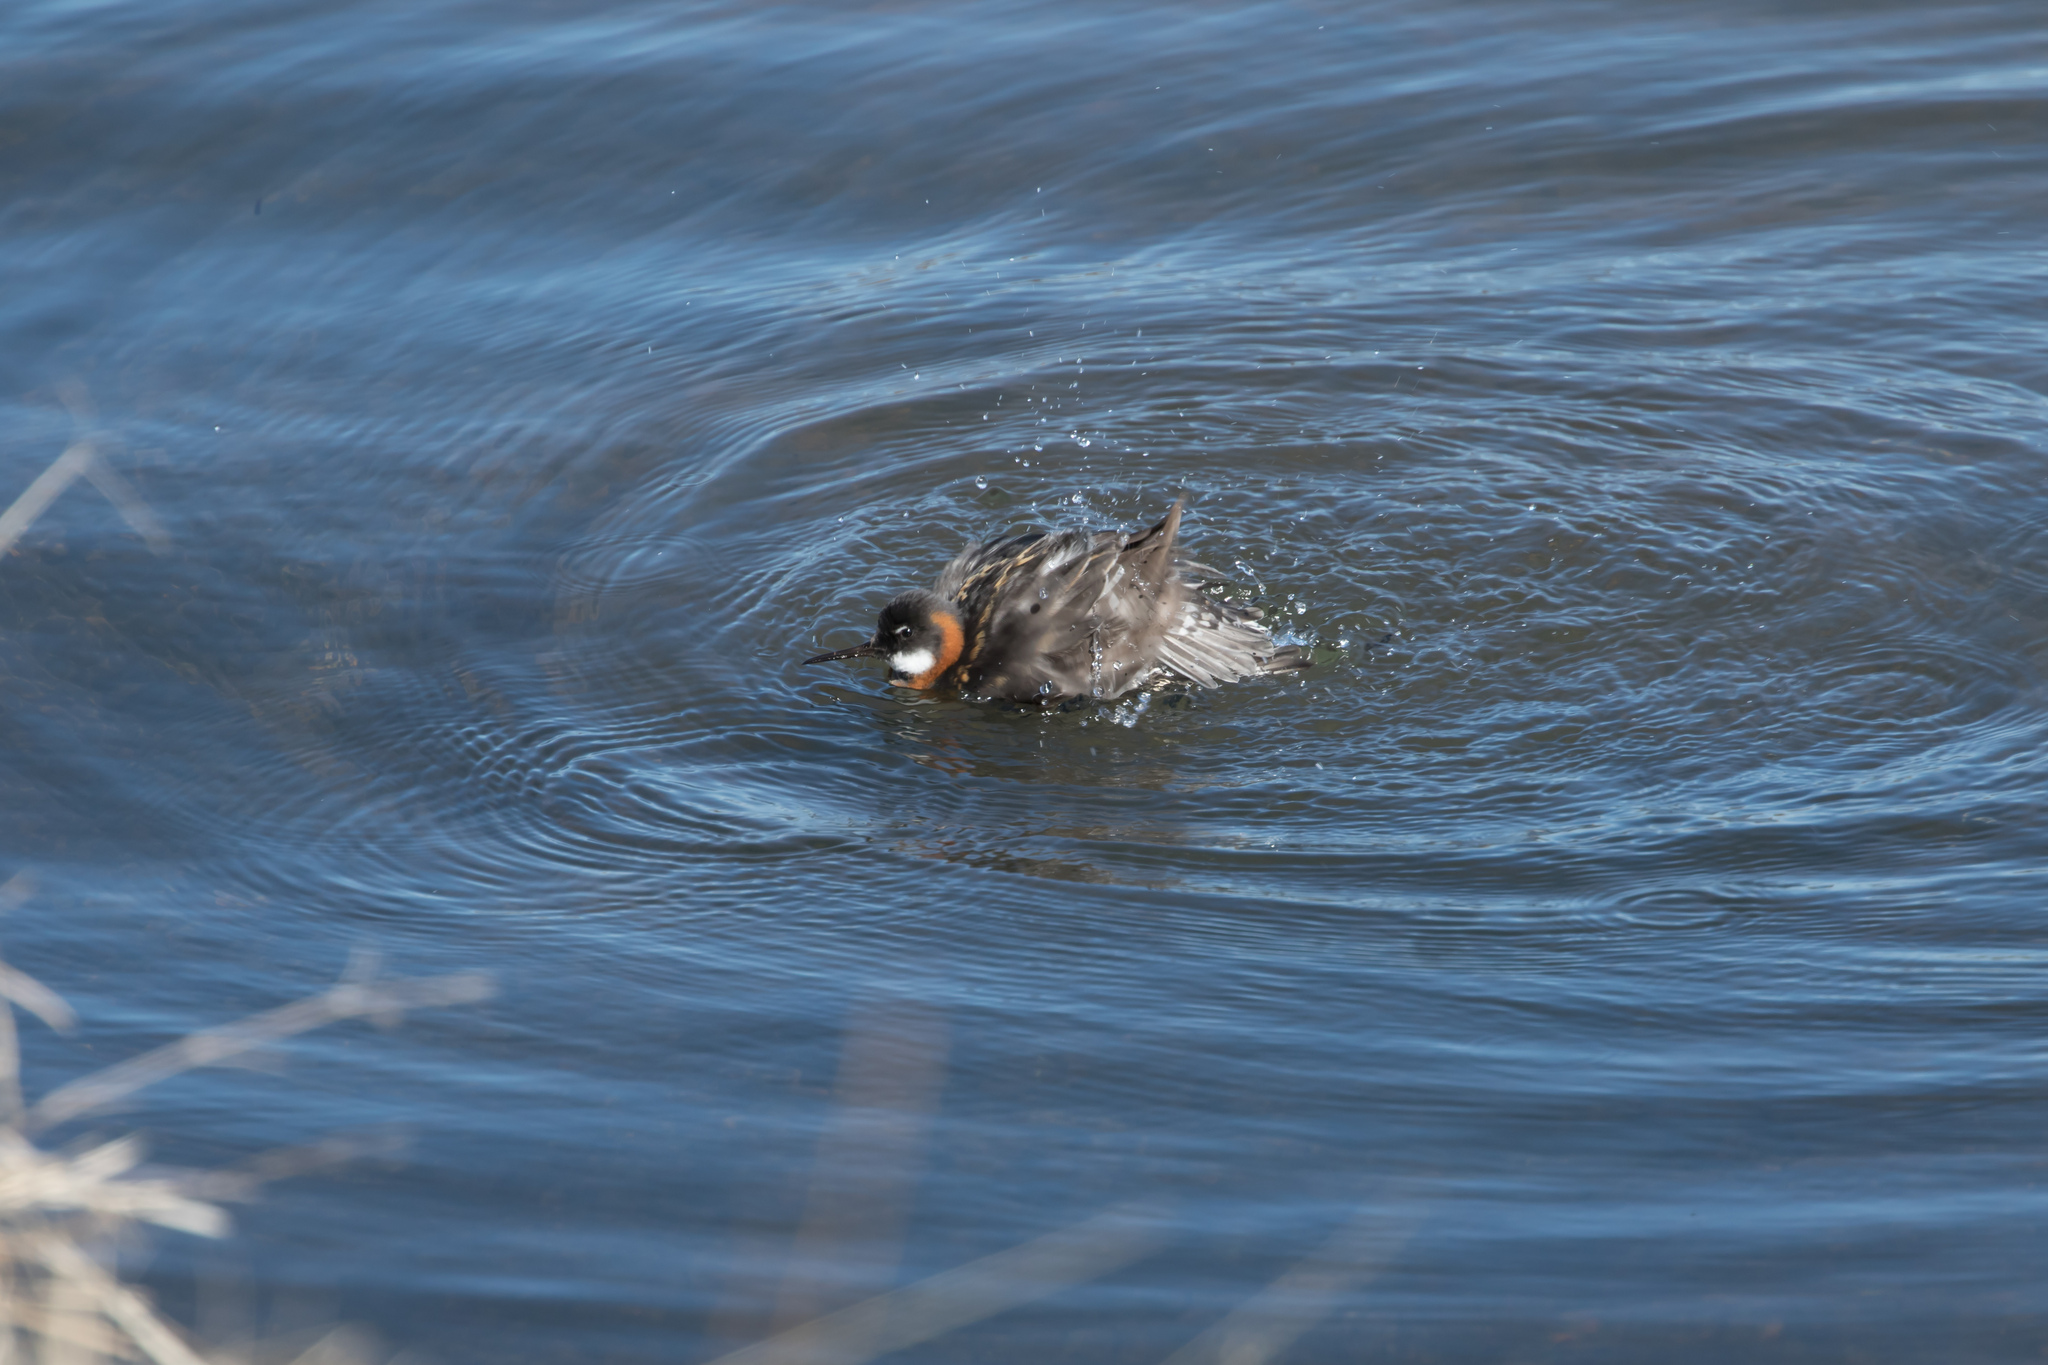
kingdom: Animalia
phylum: Chordata
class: Aves
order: Charadriiformes
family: Scolopacidae
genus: Phalaropus
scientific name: Phalaropus lobatus
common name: Red-necked phalarope
